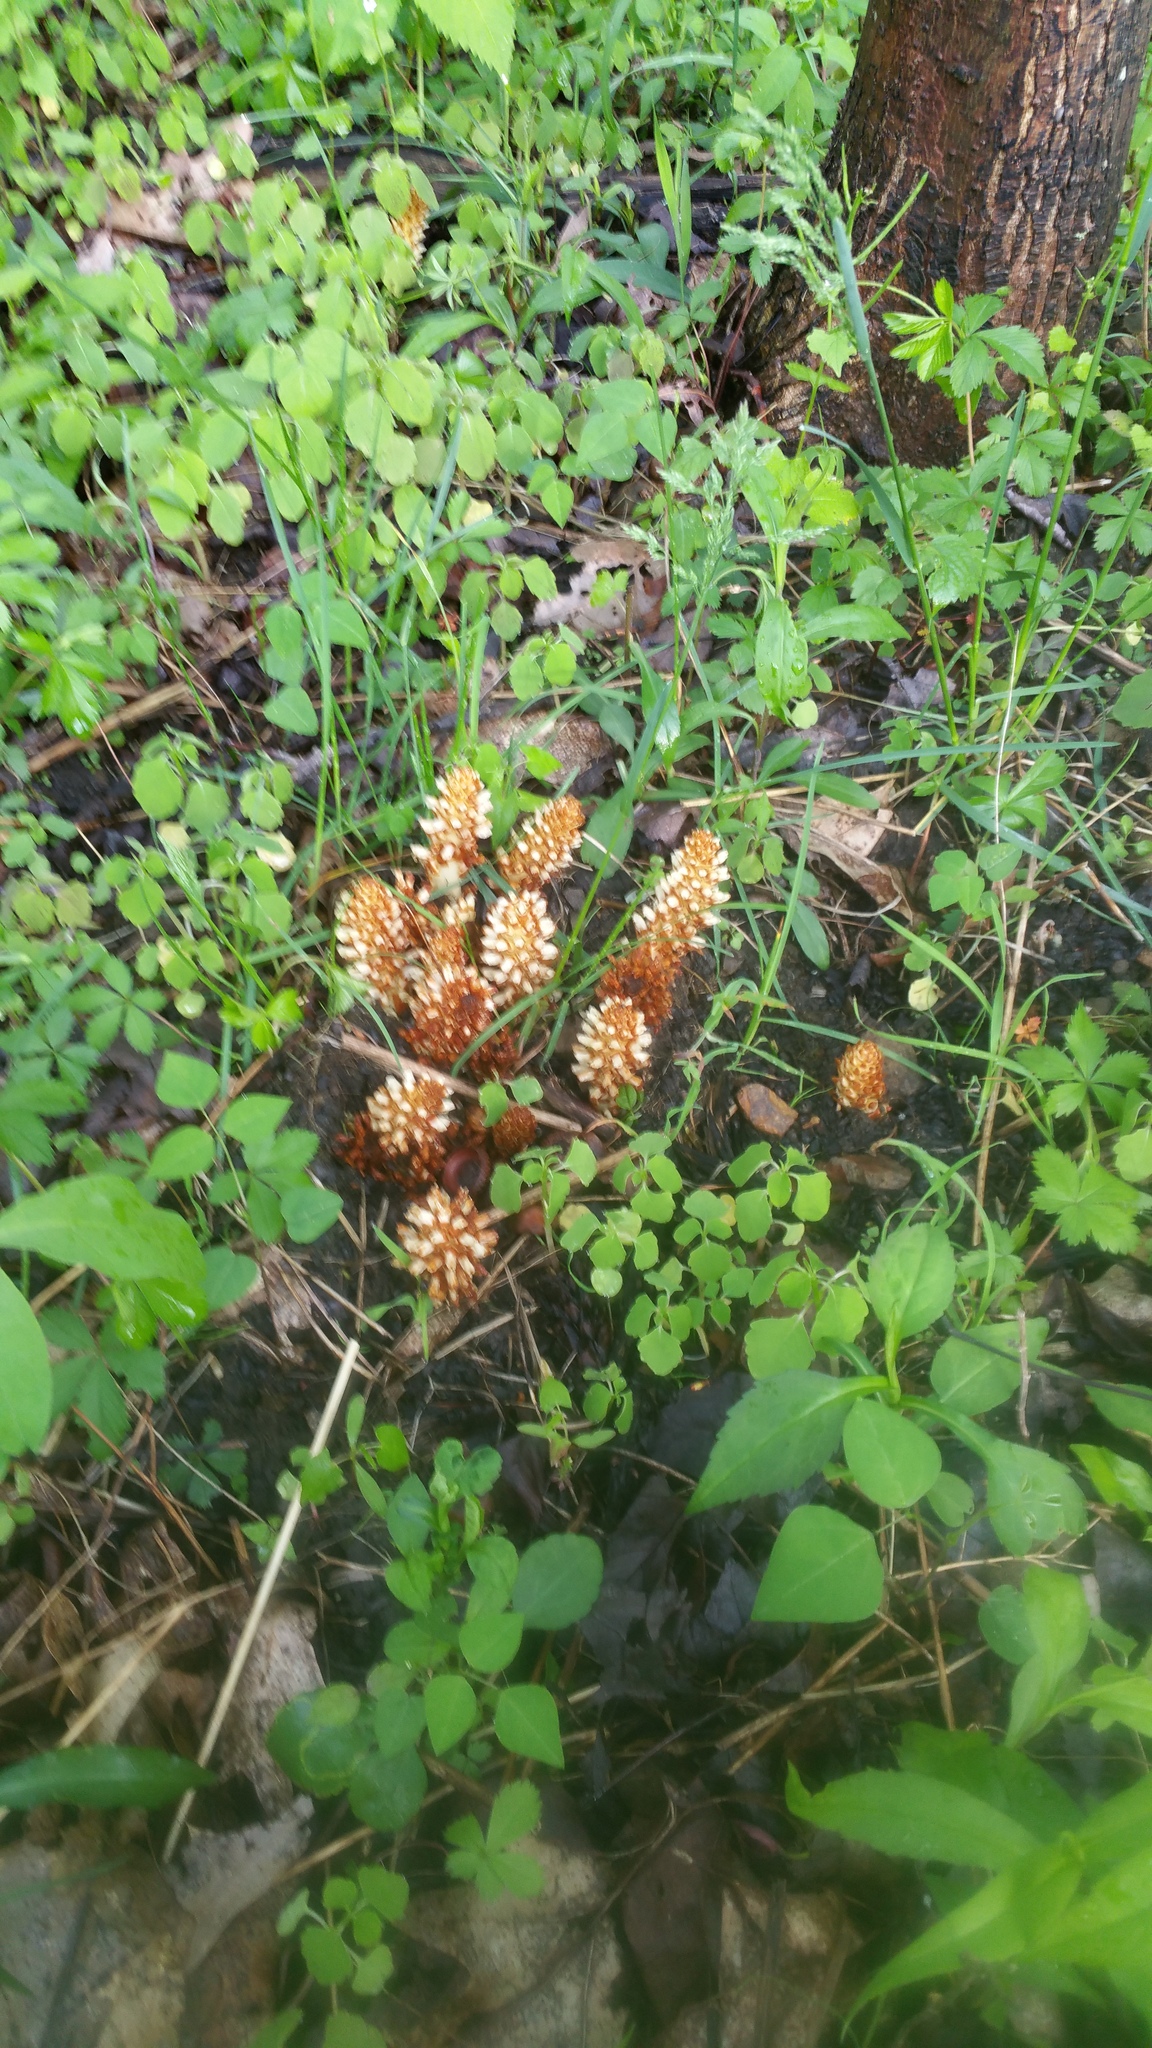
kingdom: Plantae
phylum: Tracheophyta
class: Magnoliopsida
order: Lamiales
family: Orobanchaceae
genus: Conopholis
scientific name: Conopholis americana
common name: American cancer-root
